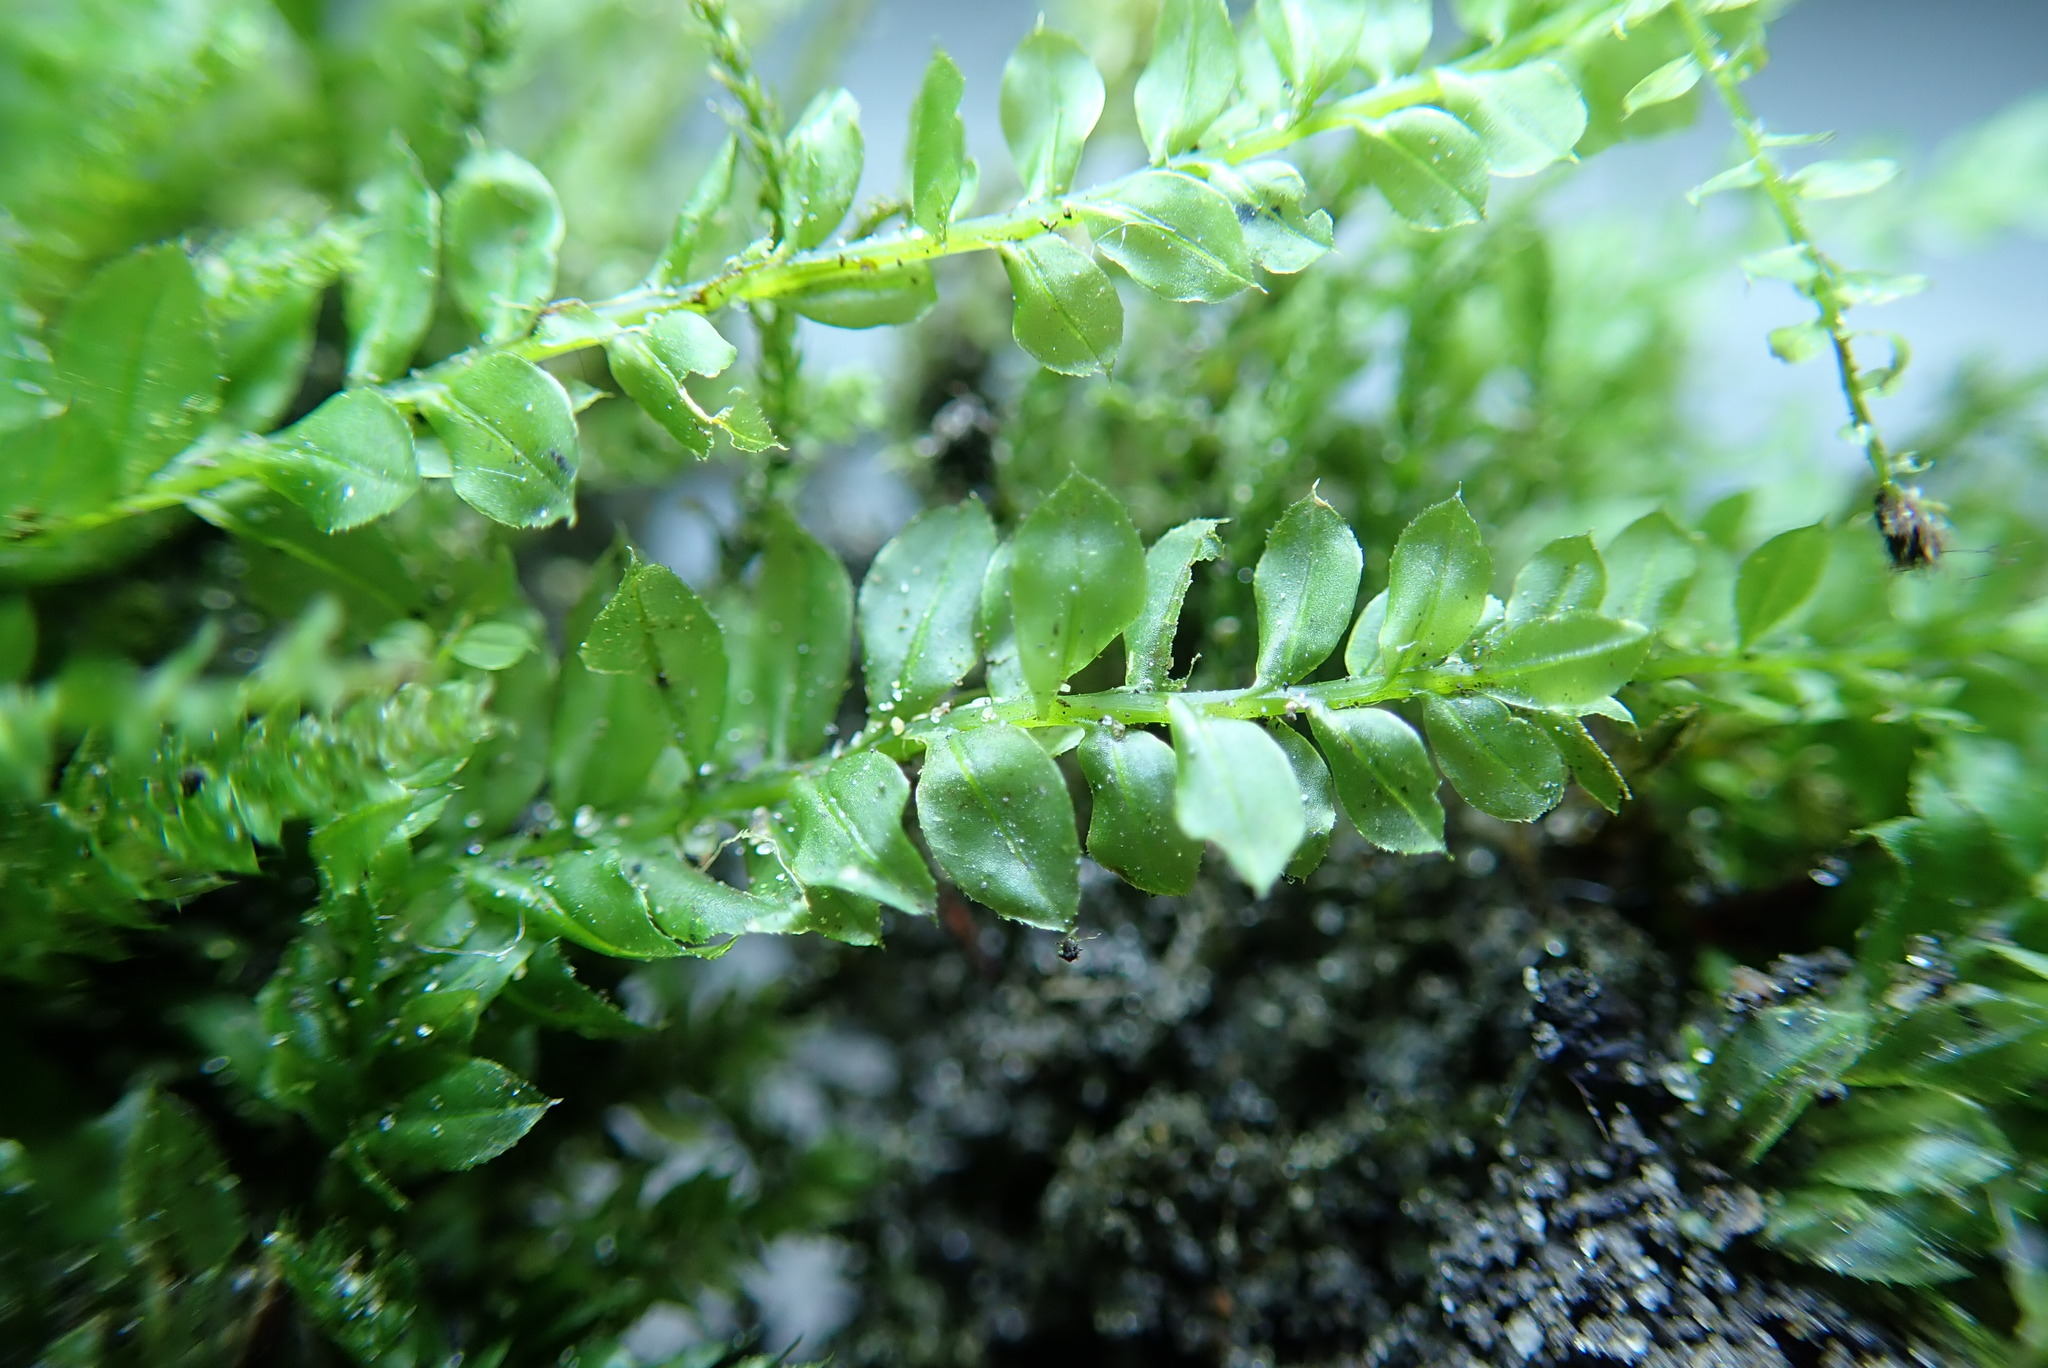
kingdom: Plantae
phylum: Bryophyta
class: Bryopsida
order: Bryales
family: Mniaceae
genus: Plagiomnium
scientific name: Plagiomnium cuspidatum
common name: Woodsy leafy moss
